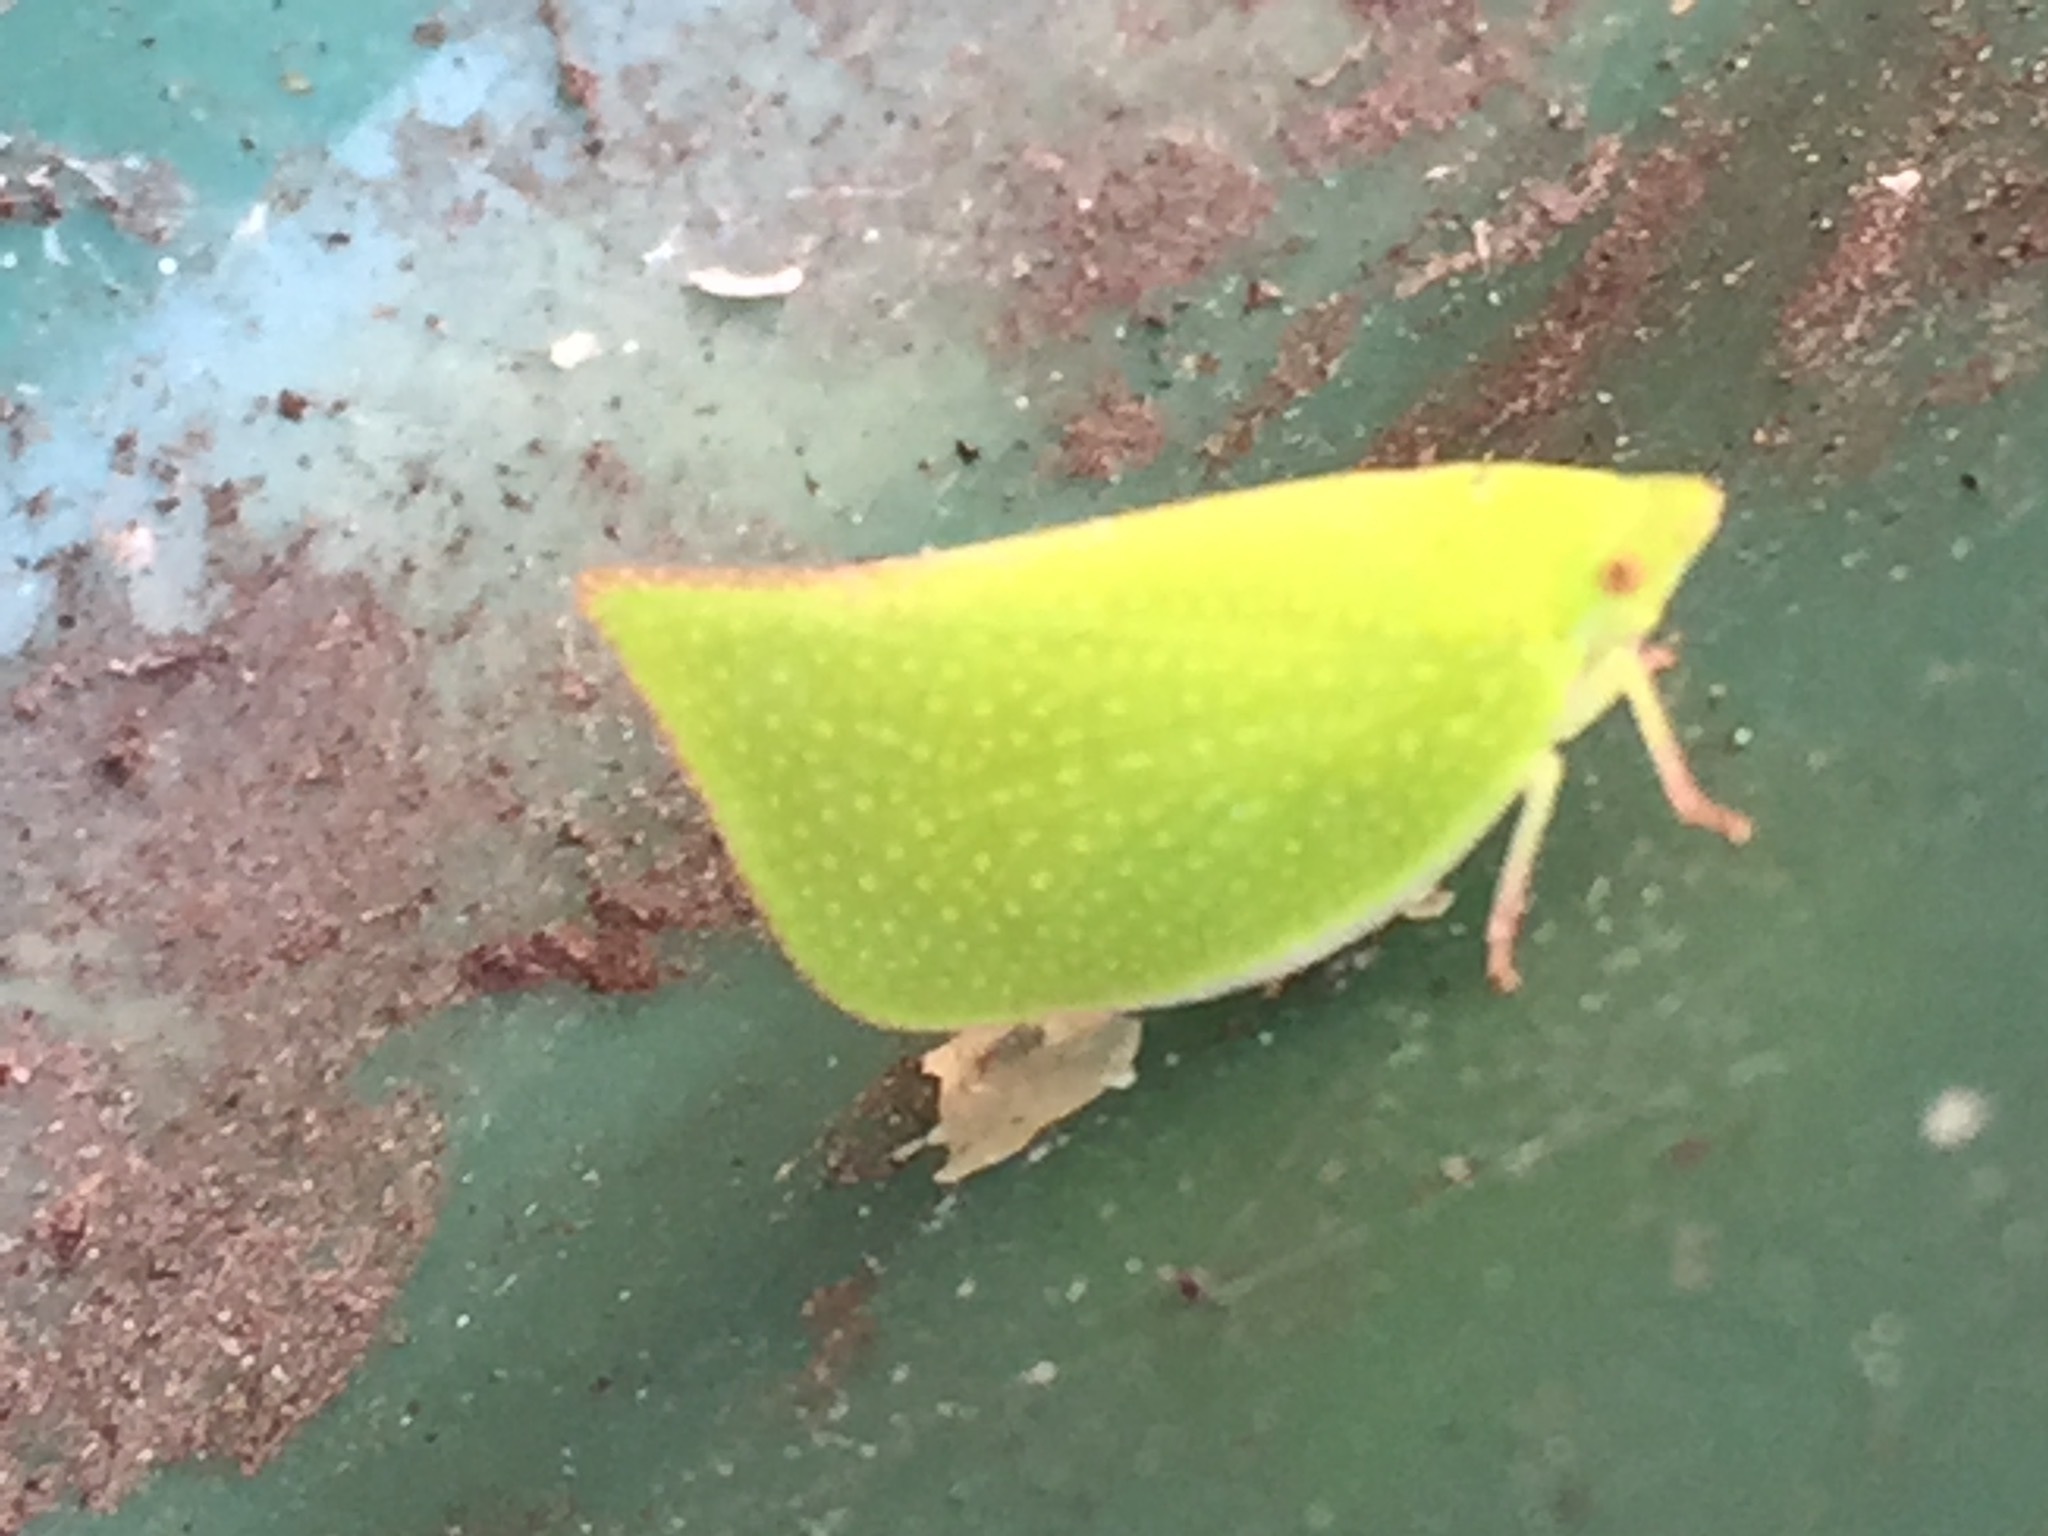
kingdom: Animalia
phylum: Arthropoda
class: Insecta
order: Hemiptera
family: Flatidae
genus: Siphanta
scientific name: Siphanta acuta
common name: Torpedo bug
